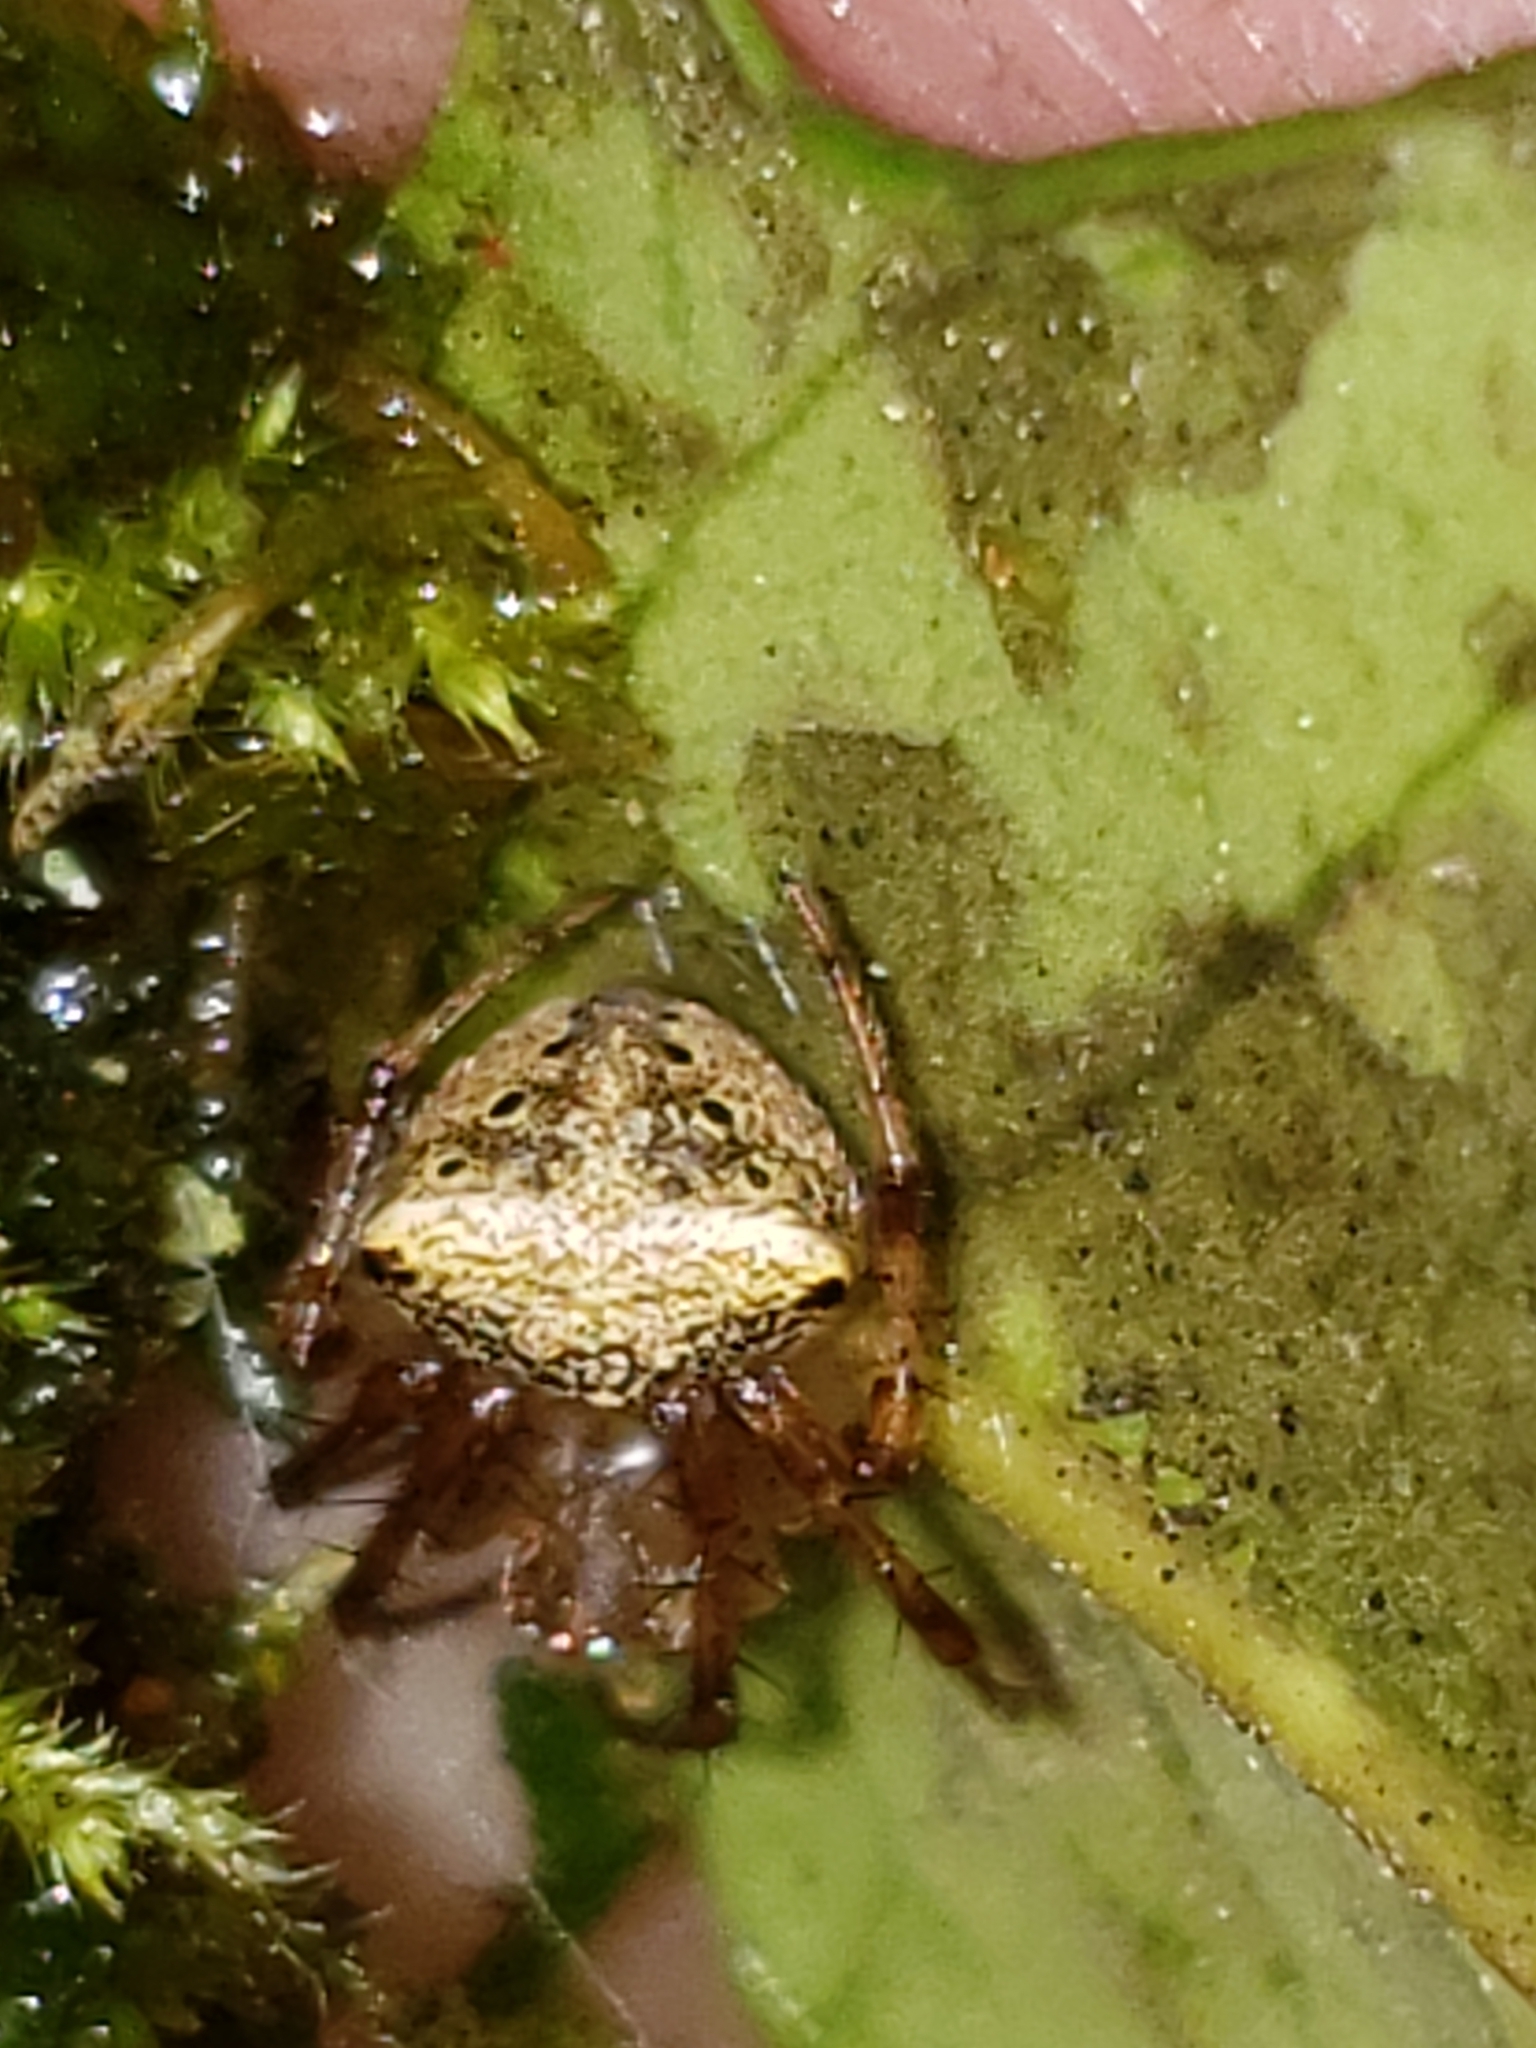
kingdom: Animalia
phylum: Arthropoda
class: Arachnida
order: Araneae
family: Araneidae
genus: Araneus
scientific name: Araneus partitus
